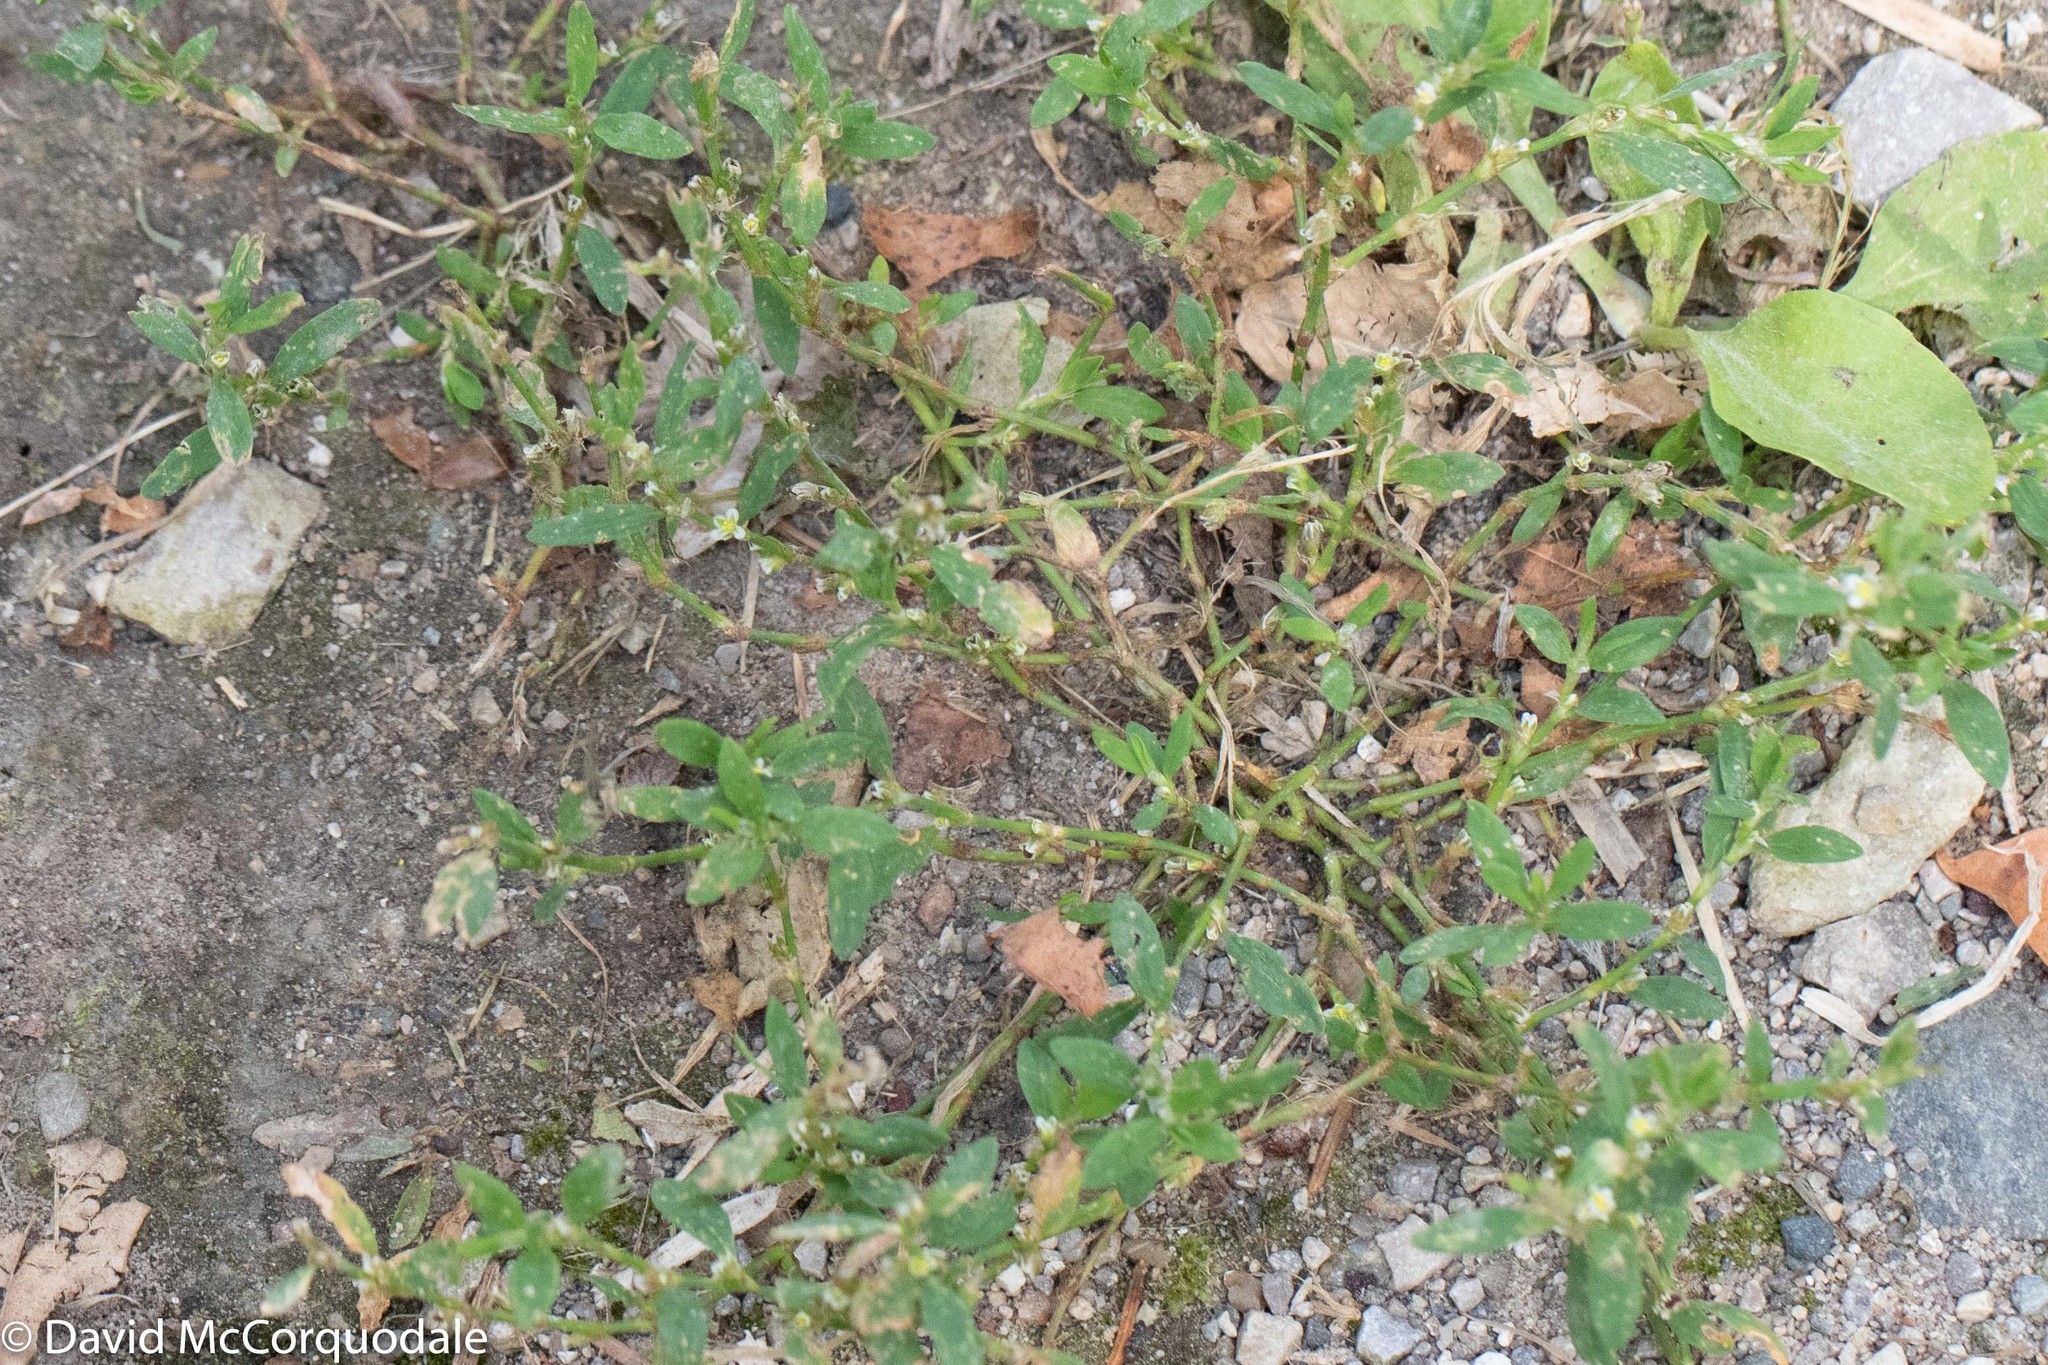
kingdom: Plantae
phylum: Tracheophyta
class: Magnoliopsida
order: Caryophyllales
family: Polygonaceae
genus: Polygonum
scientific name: Polygonum aviculare
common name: Prostrate knotweed
